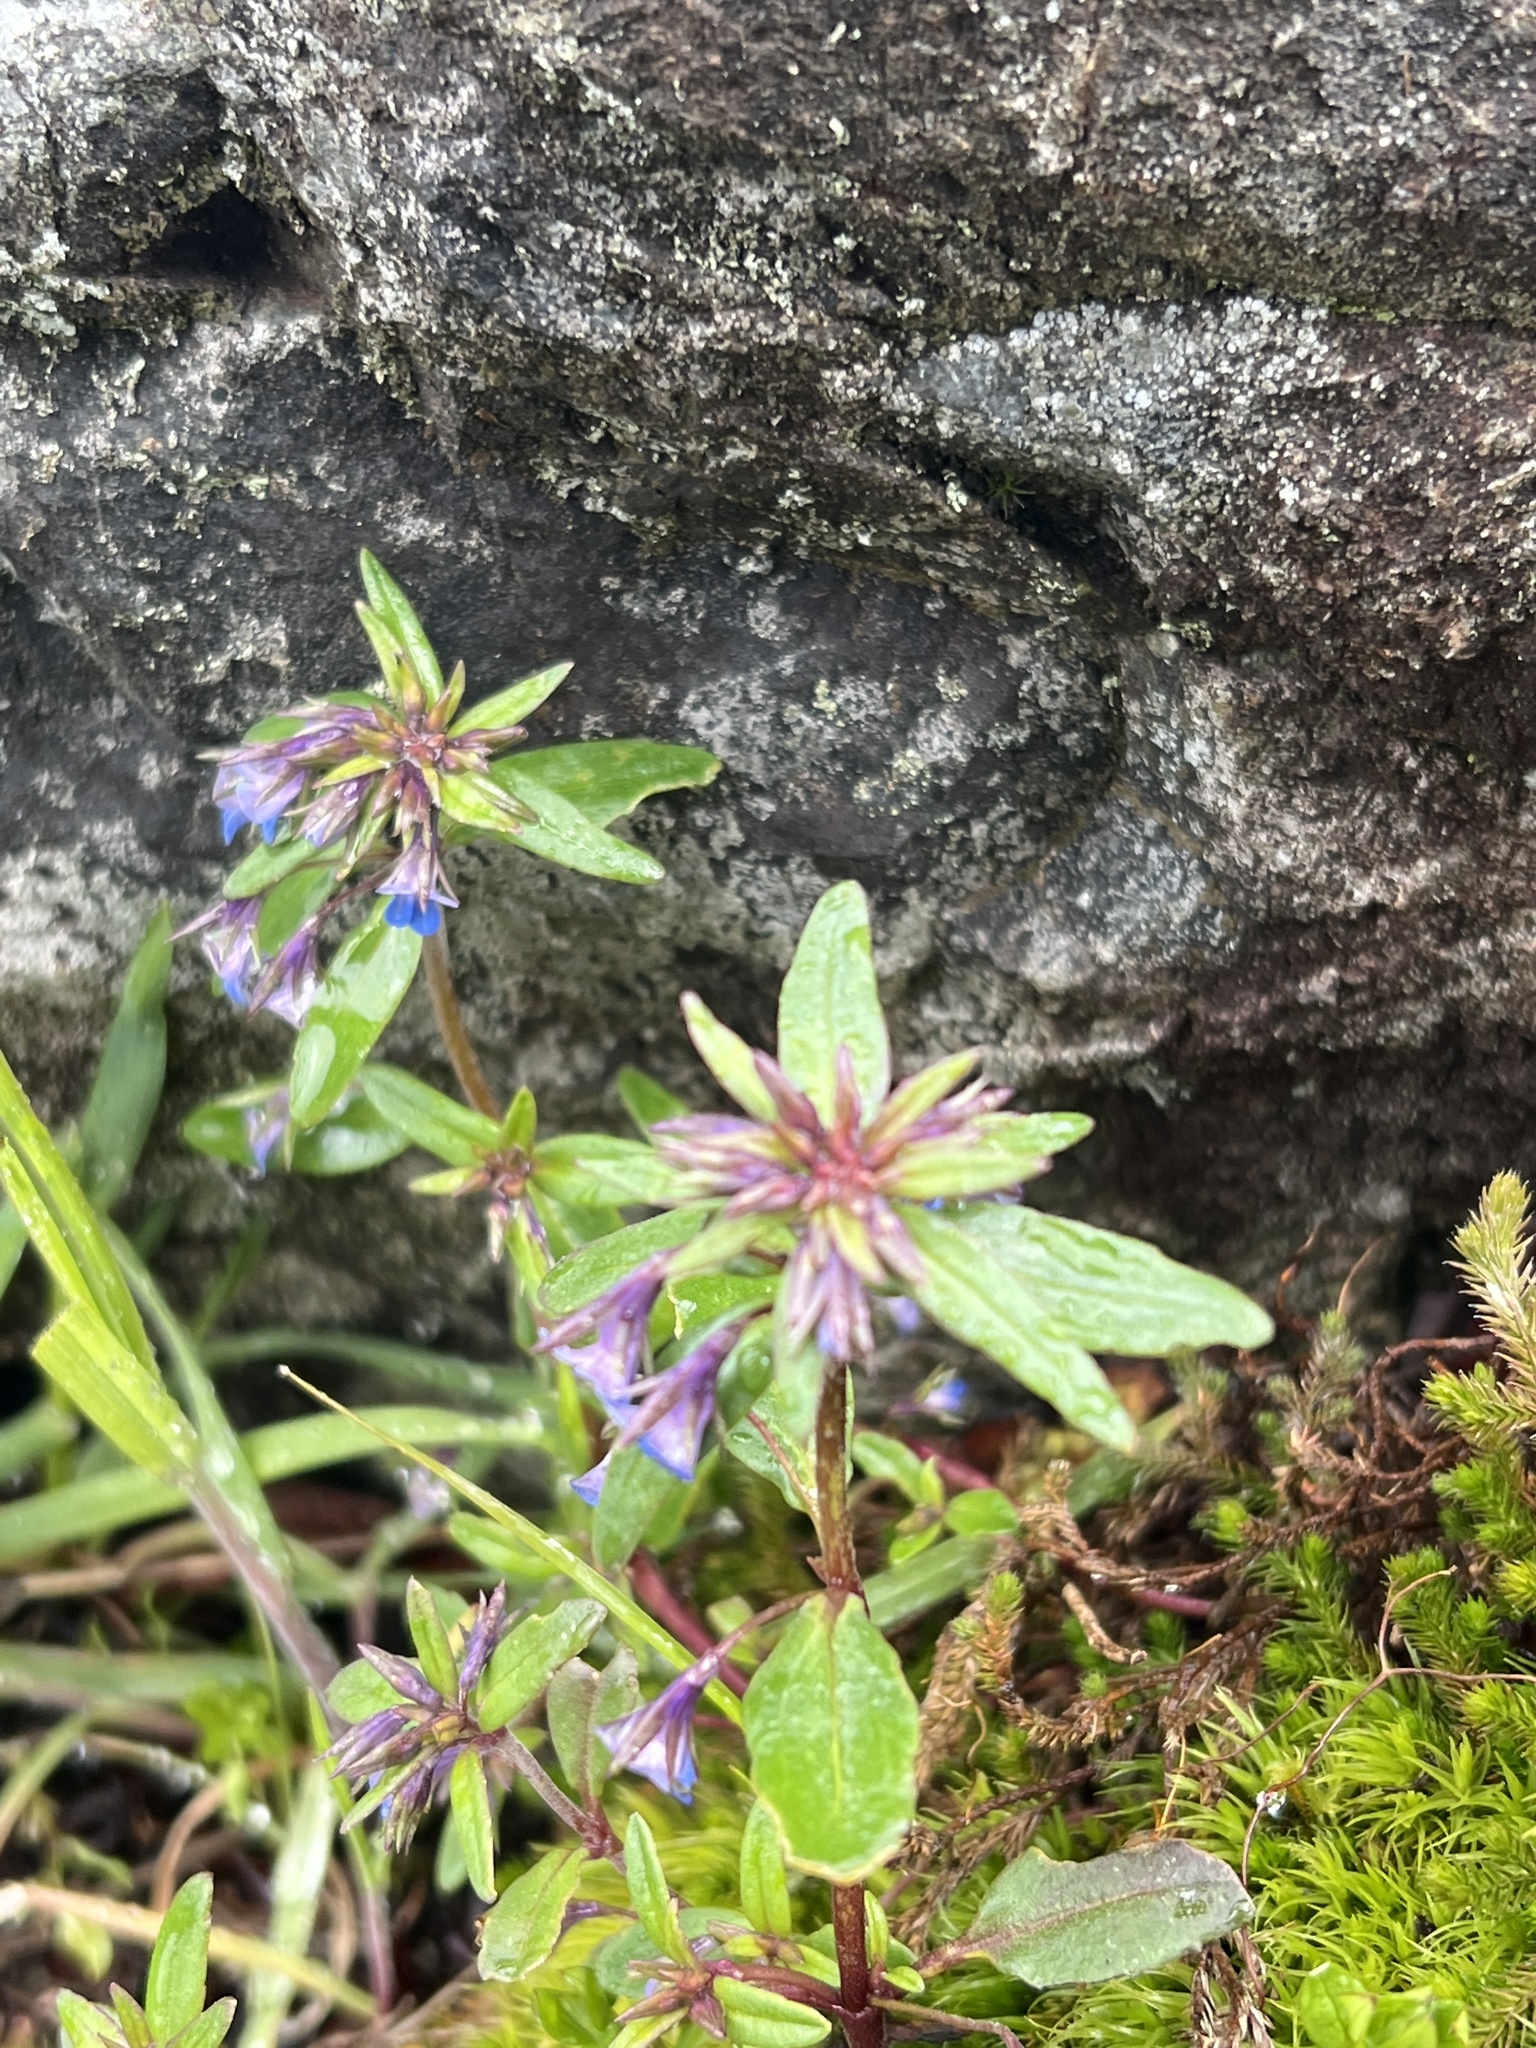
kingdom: Plantae
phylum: Tracheophyta
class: Magnoliopsida
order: Lamiales
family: Plantaginaceae
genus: Collinsia
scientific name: Collinsia parviflora
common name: Blue-lips
